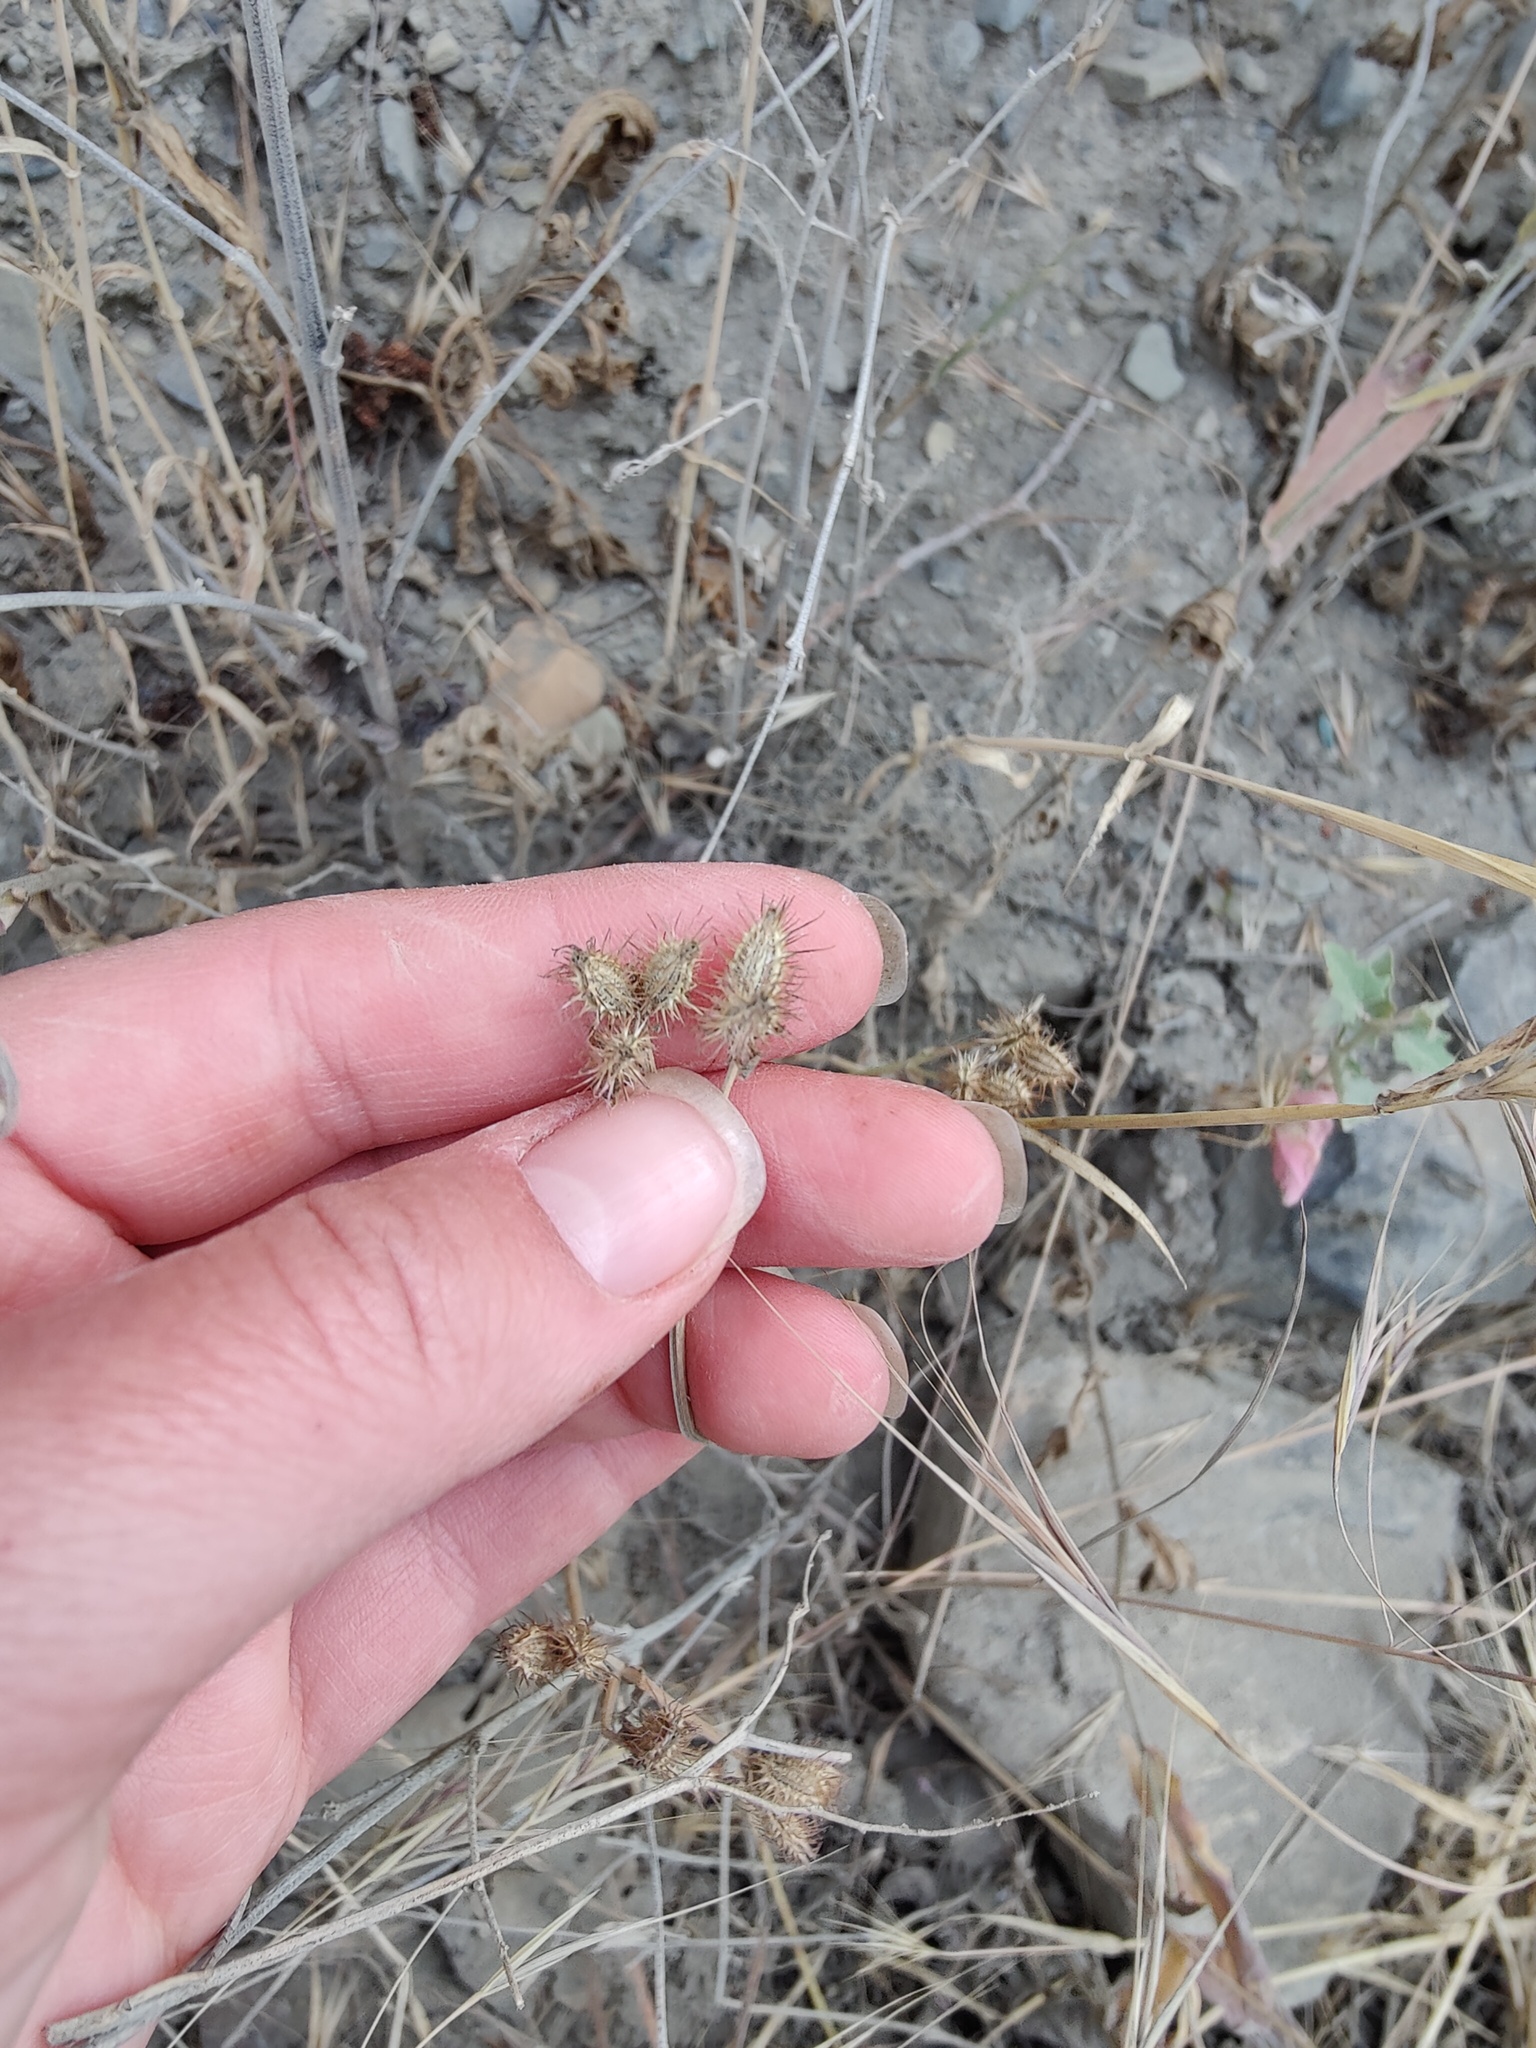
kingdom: Plantae
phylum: Tracheophyta
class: Magnoliopsida
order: Apiales
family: Apiaceae
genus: Orlaya
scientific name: Orlaya daucoides
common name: Flat-fruit orlaya
